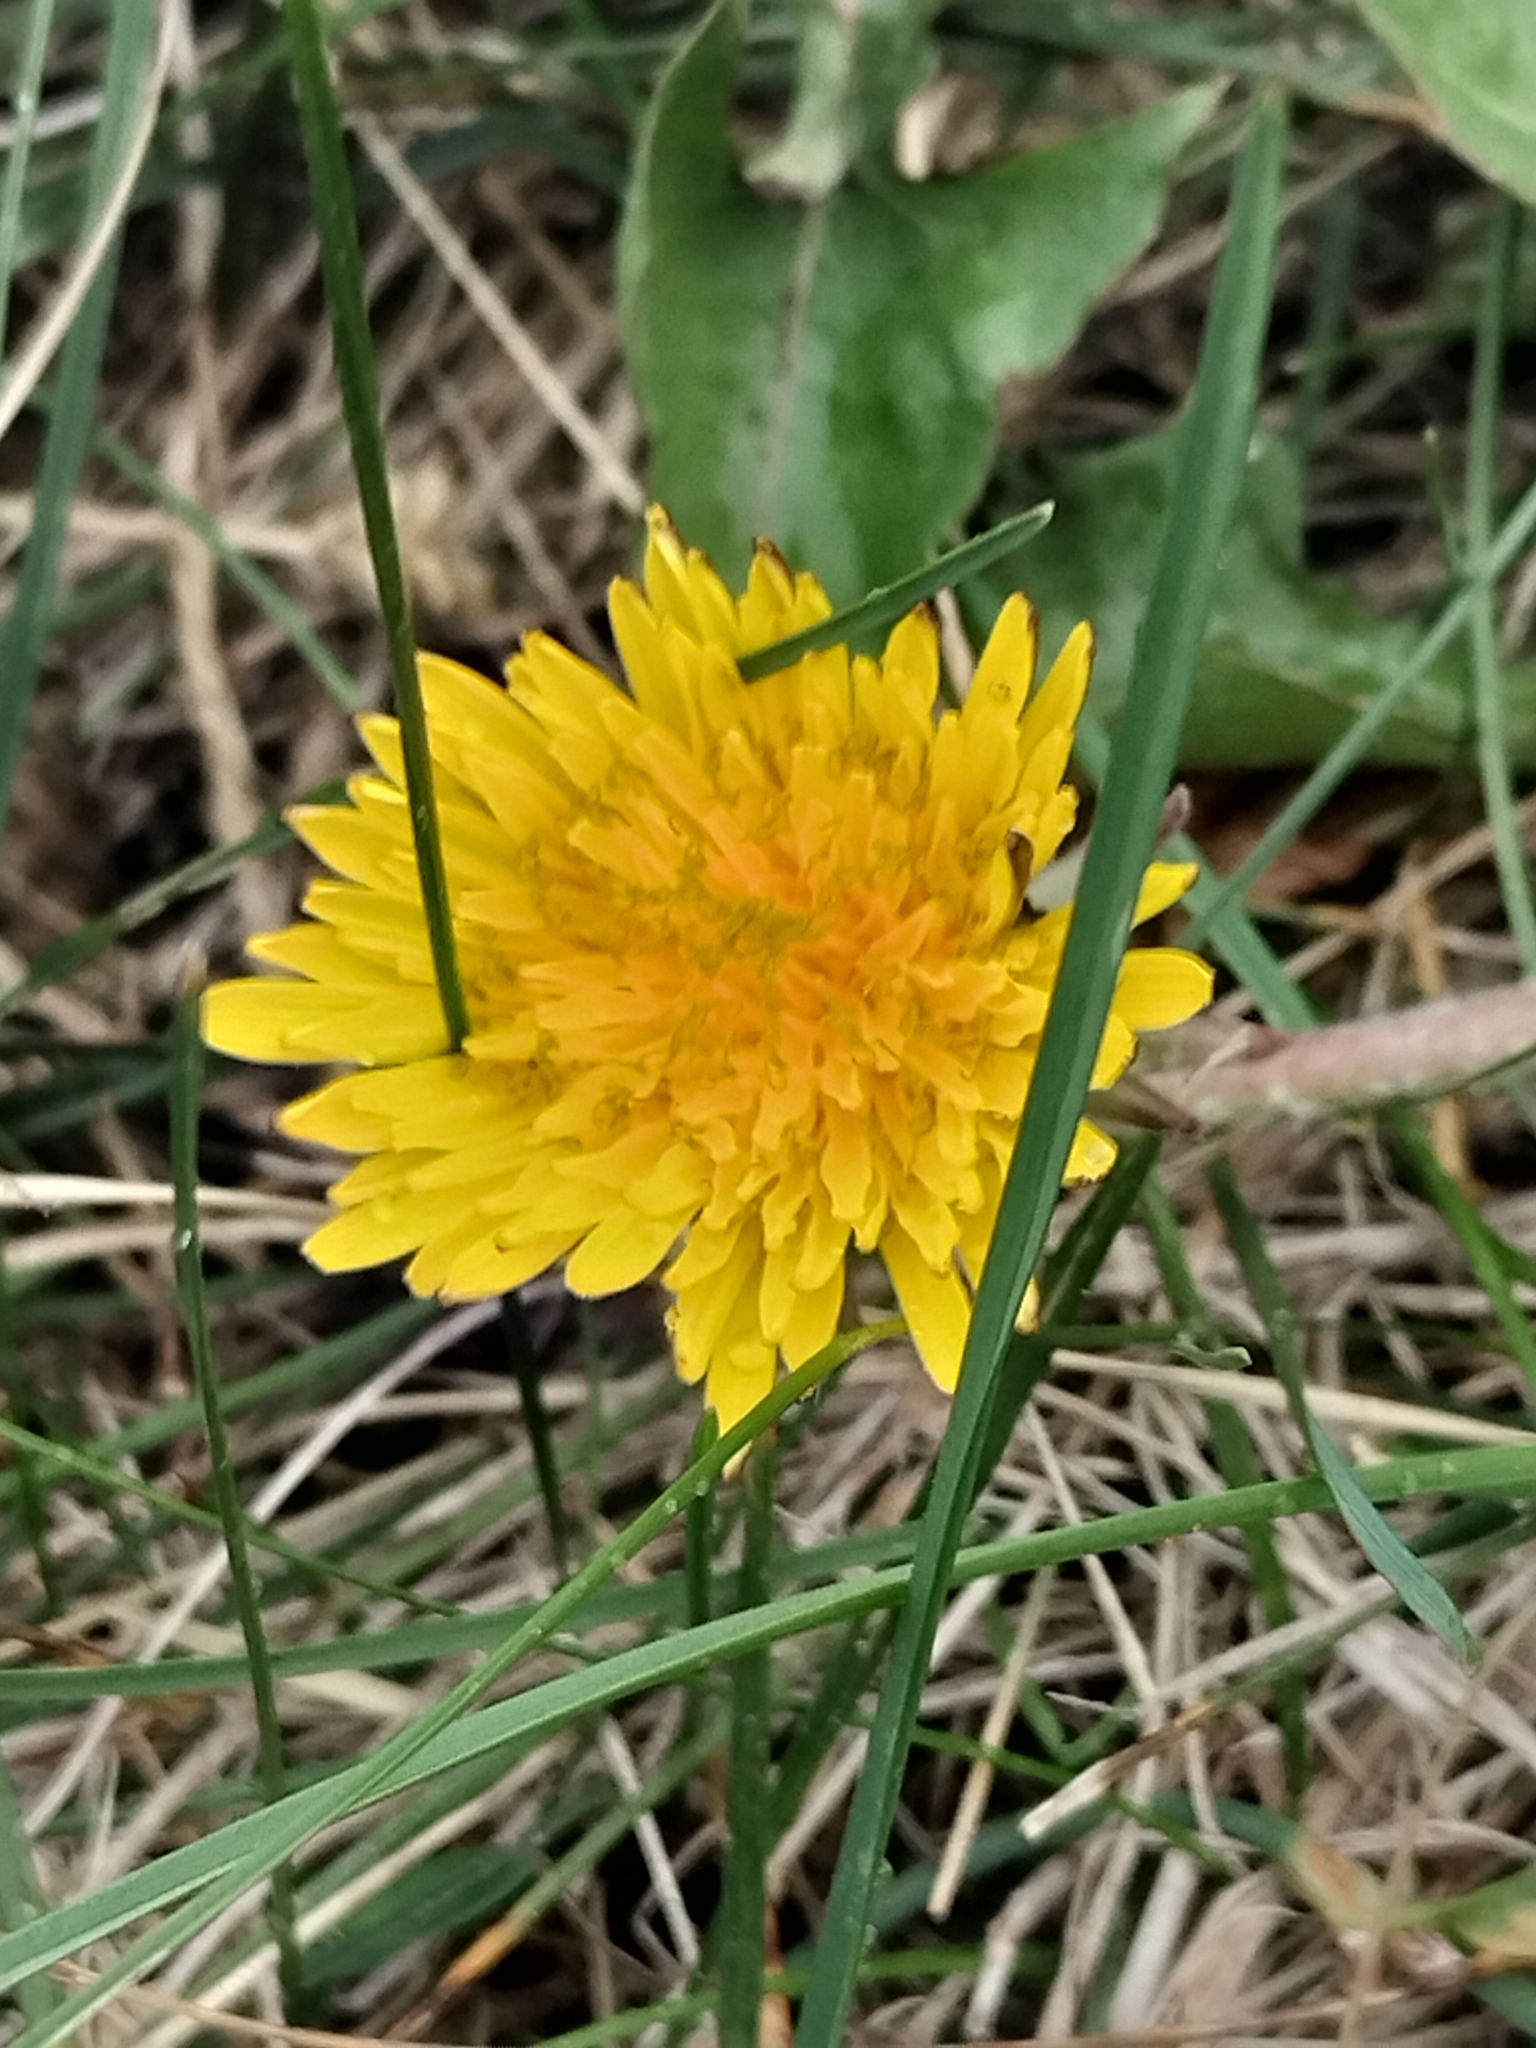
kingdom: Plantae
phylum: Tracheophyta
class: Magnoliopsida
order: Asterales
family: Asteraceae
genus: Taraxacum
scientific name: Taraxacum officinale
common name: Common dandelion
